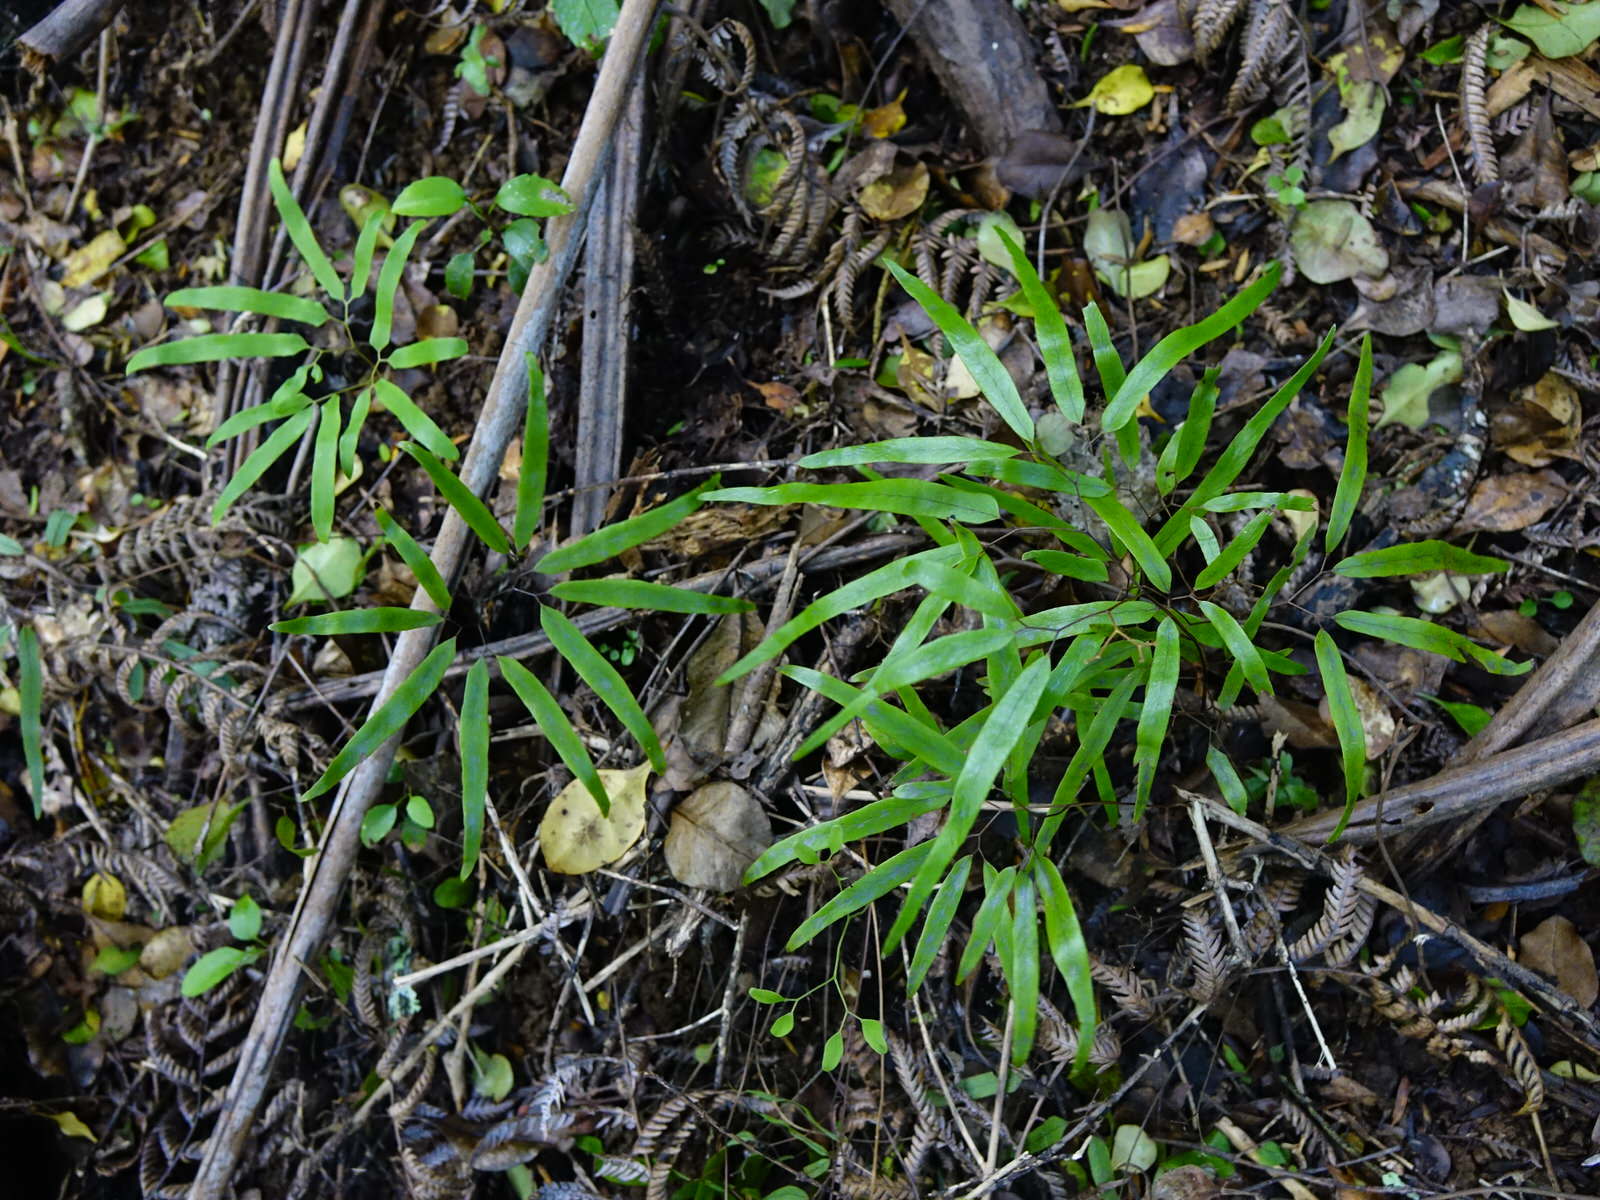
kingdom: Plantae
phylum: Tracheophyta
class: Polypodiopsida
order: Schizaeales
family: Lygodiaceae
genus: Lygodium
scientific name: Lygodium articulatum
